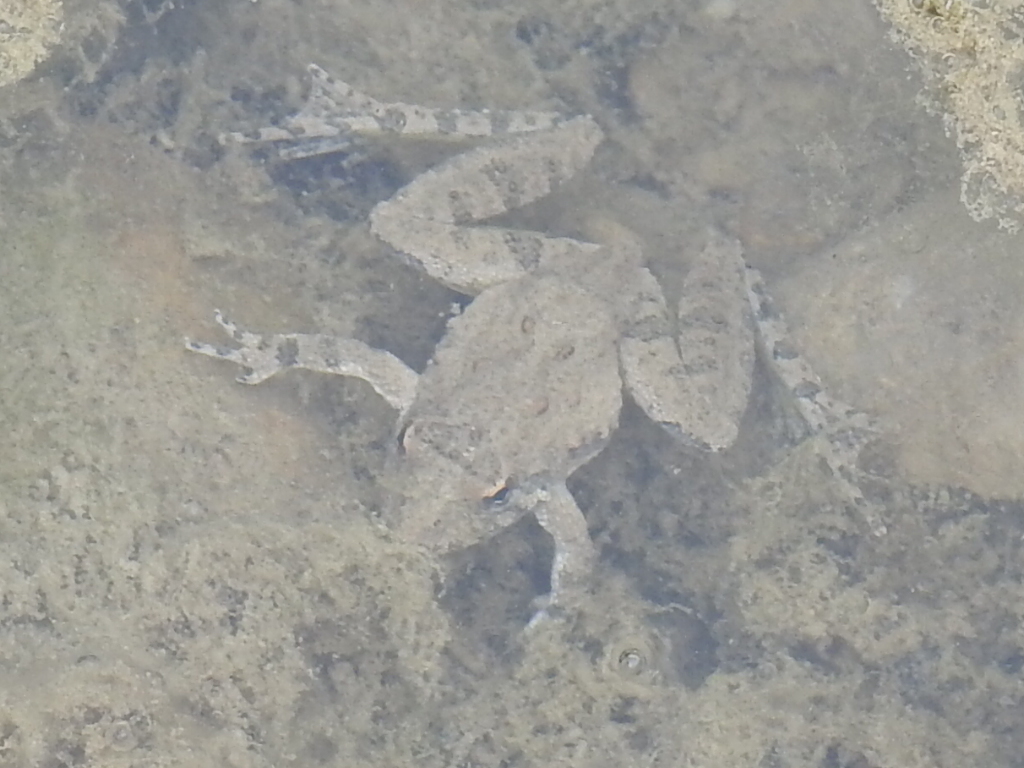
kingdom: Animalia
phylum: Chordata
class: Amphibia
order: Anura
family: Hylidae
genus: Acris
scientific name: Acris blanchardi
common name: Blanchard's cricket frog
